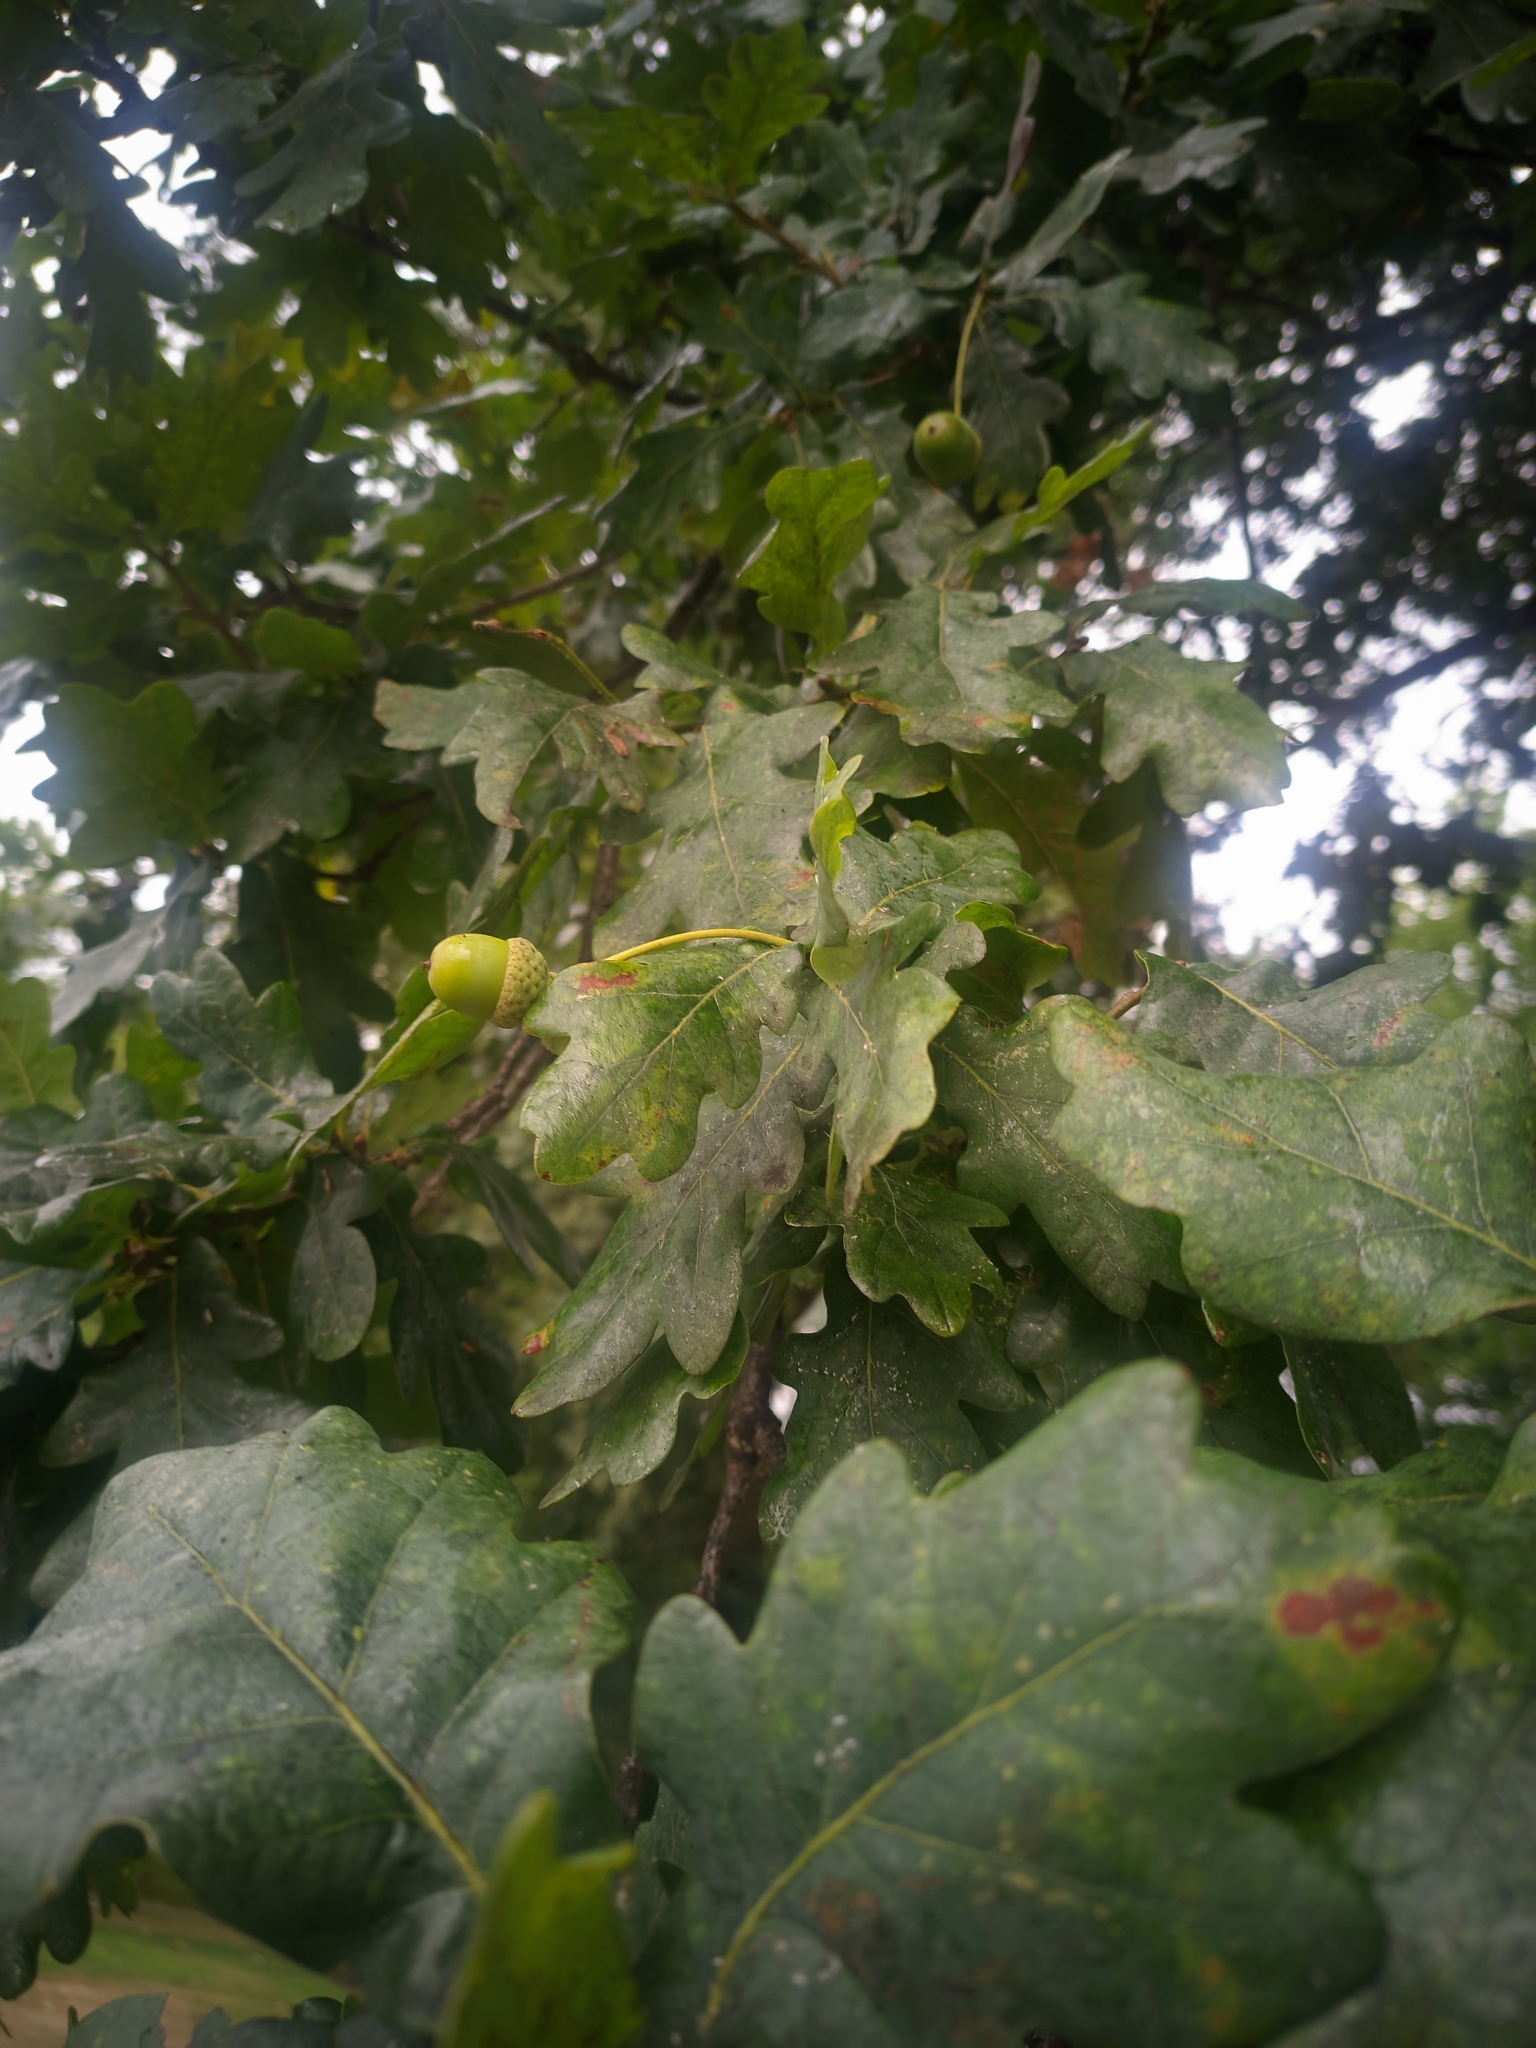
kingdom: Plantae
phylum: Tracheophyta
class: Magnoliopsida
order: Fagales
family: Fagaceae
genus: Quercus
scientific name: Quercus robur
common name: Pedunculate oak
